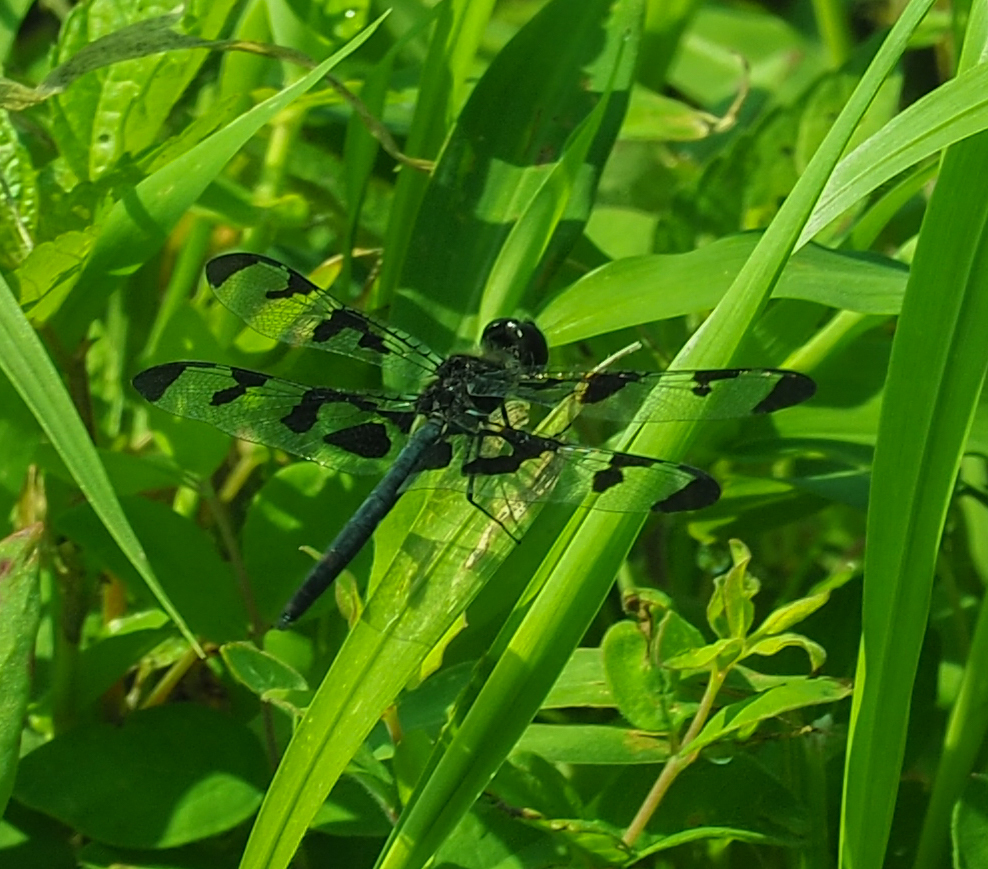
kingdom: Animalia
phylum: Arthropoda
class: Insecta
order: Odonata
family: Libellulidae
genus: Celithemis
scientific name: Celithemis fasciata
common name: Banded pennant
